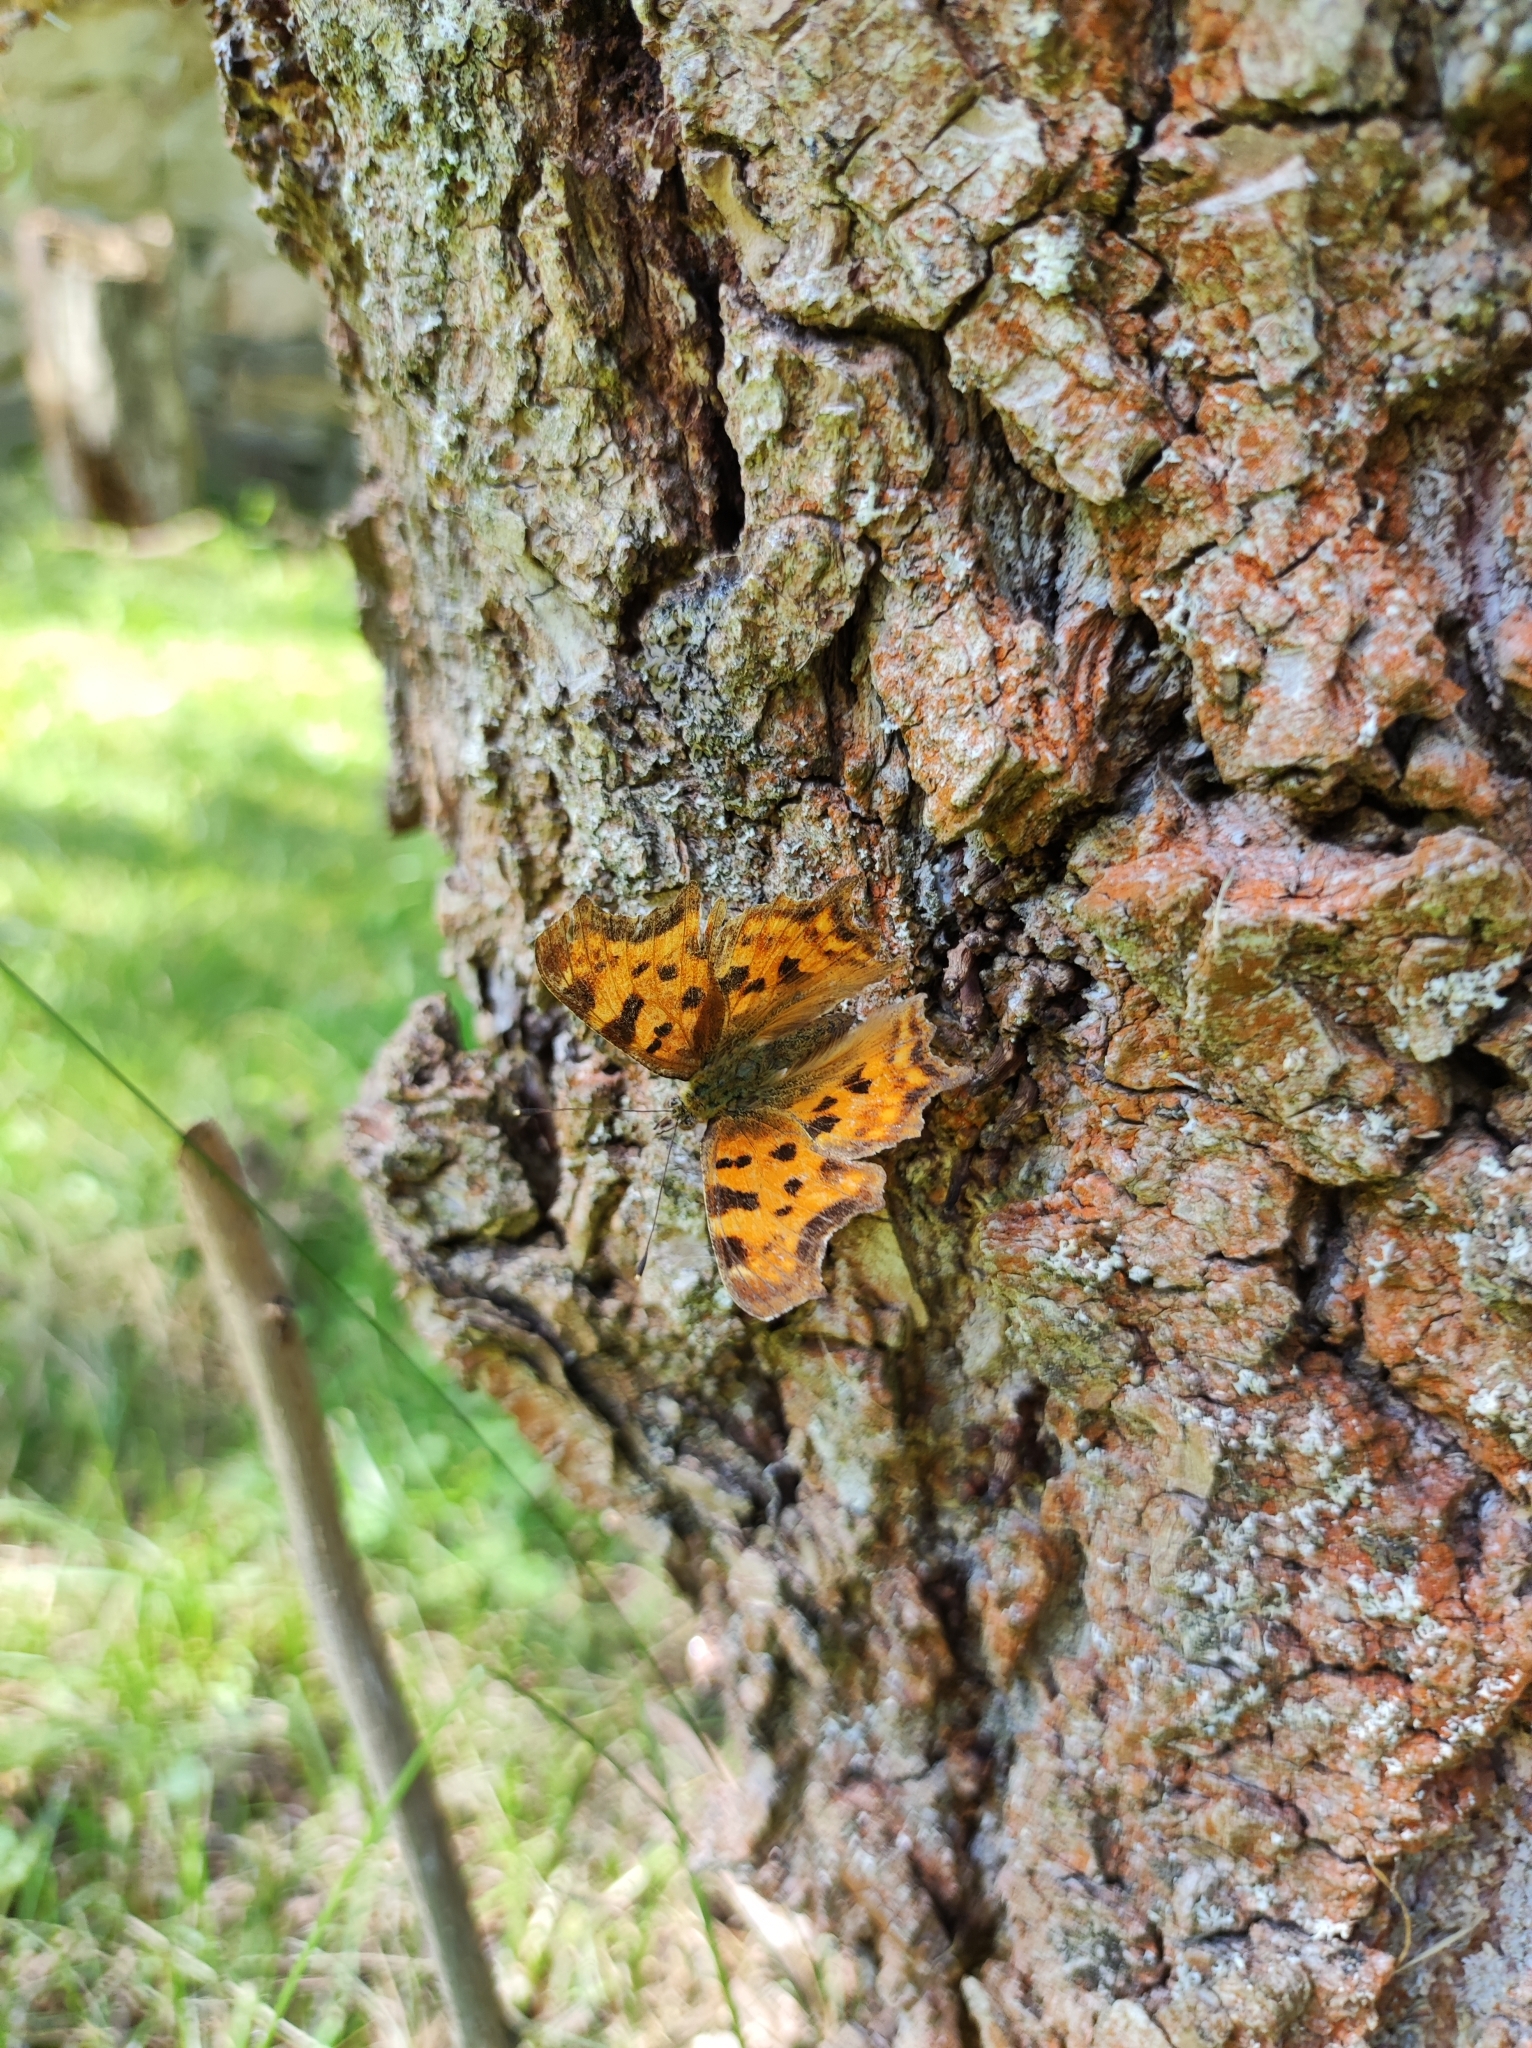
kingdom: Animalia
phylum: Arthropoda
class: Insecta
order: Lepidoptera
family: Nymphalidae
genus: Polygonia
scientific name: Polygonia c-album
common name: Comma
